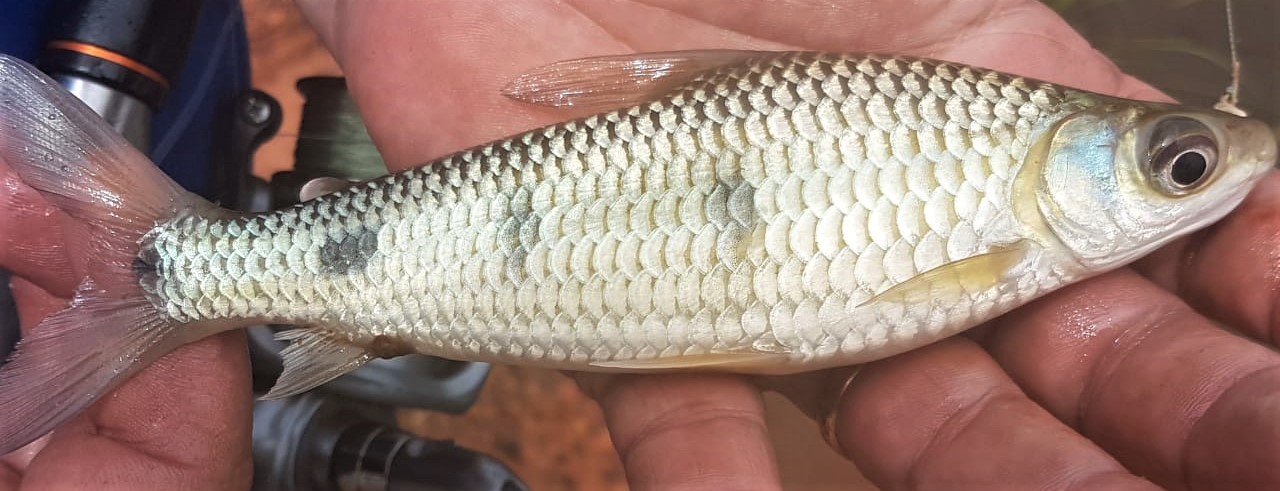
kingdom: Animalia
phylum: Chordata
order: Characiformes
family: Anostomidae
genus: Leporinus
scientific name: Leporinus friderici
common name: Threespot leporinus
